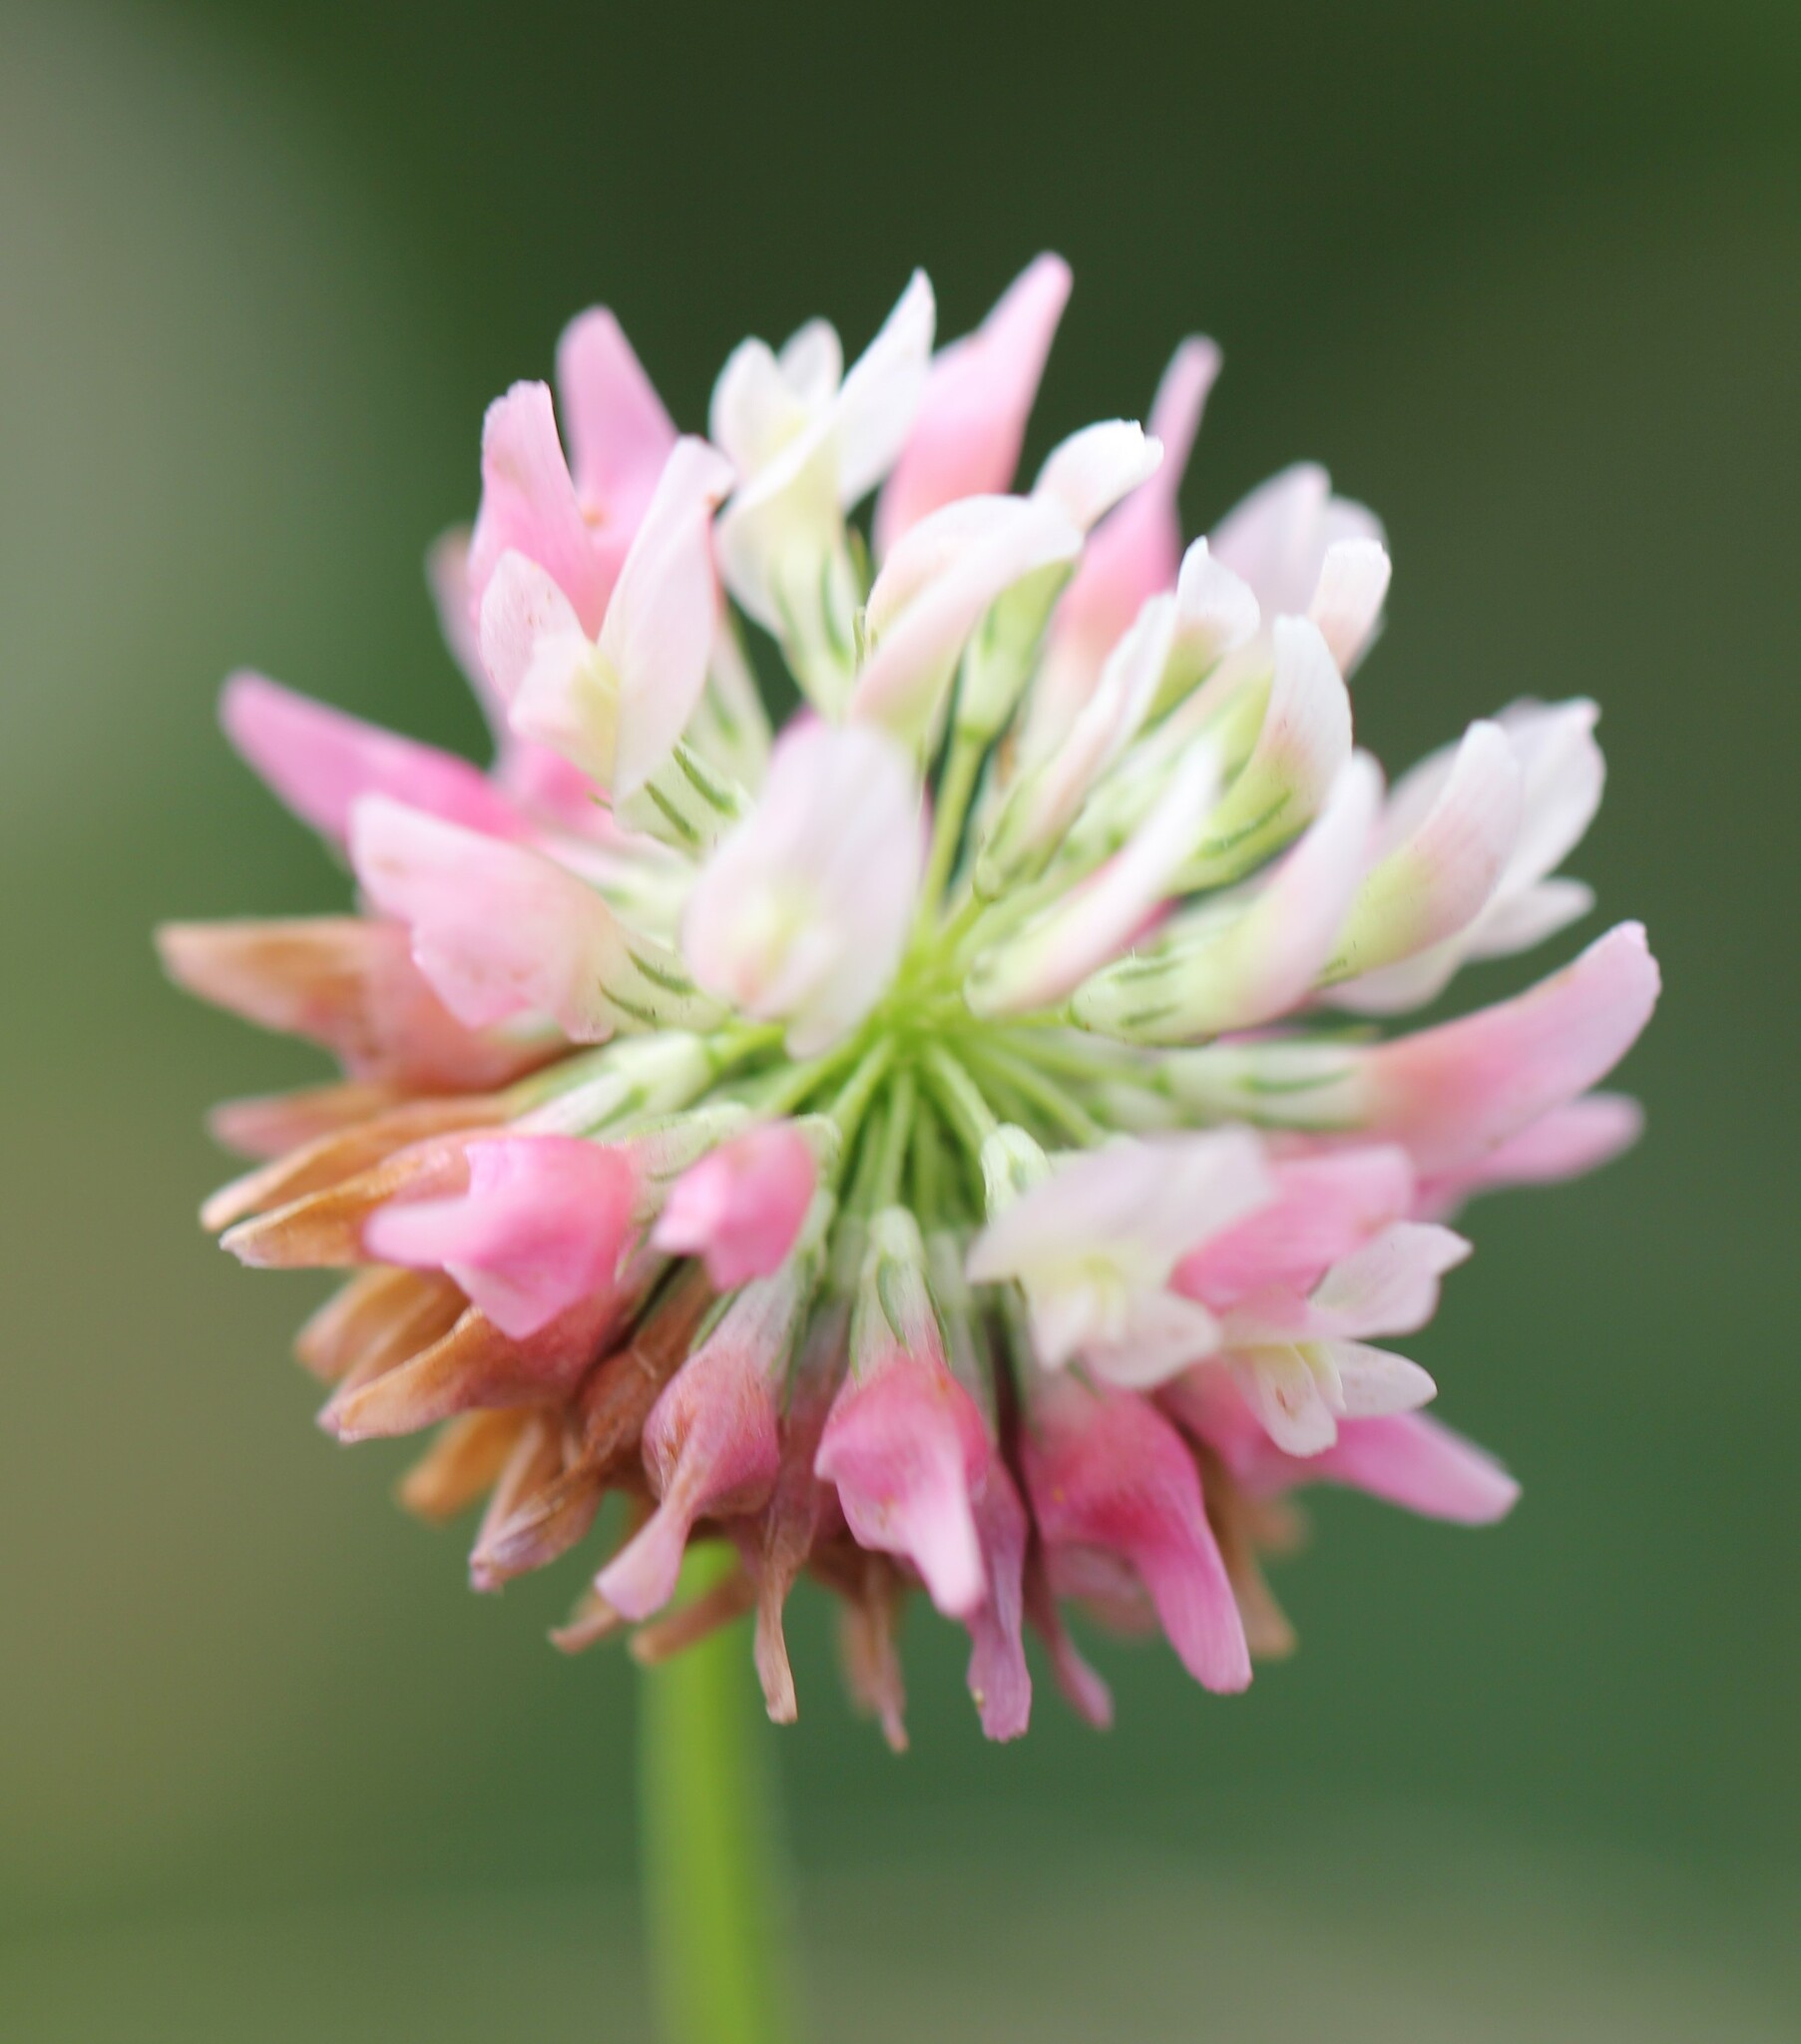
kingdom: Plantae
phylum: Tracheophyta
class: Magnoliopsida
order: Fabales
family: Fabaceae
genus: Trifolium
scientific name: Trifolium hybridum
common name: Alsike clover
